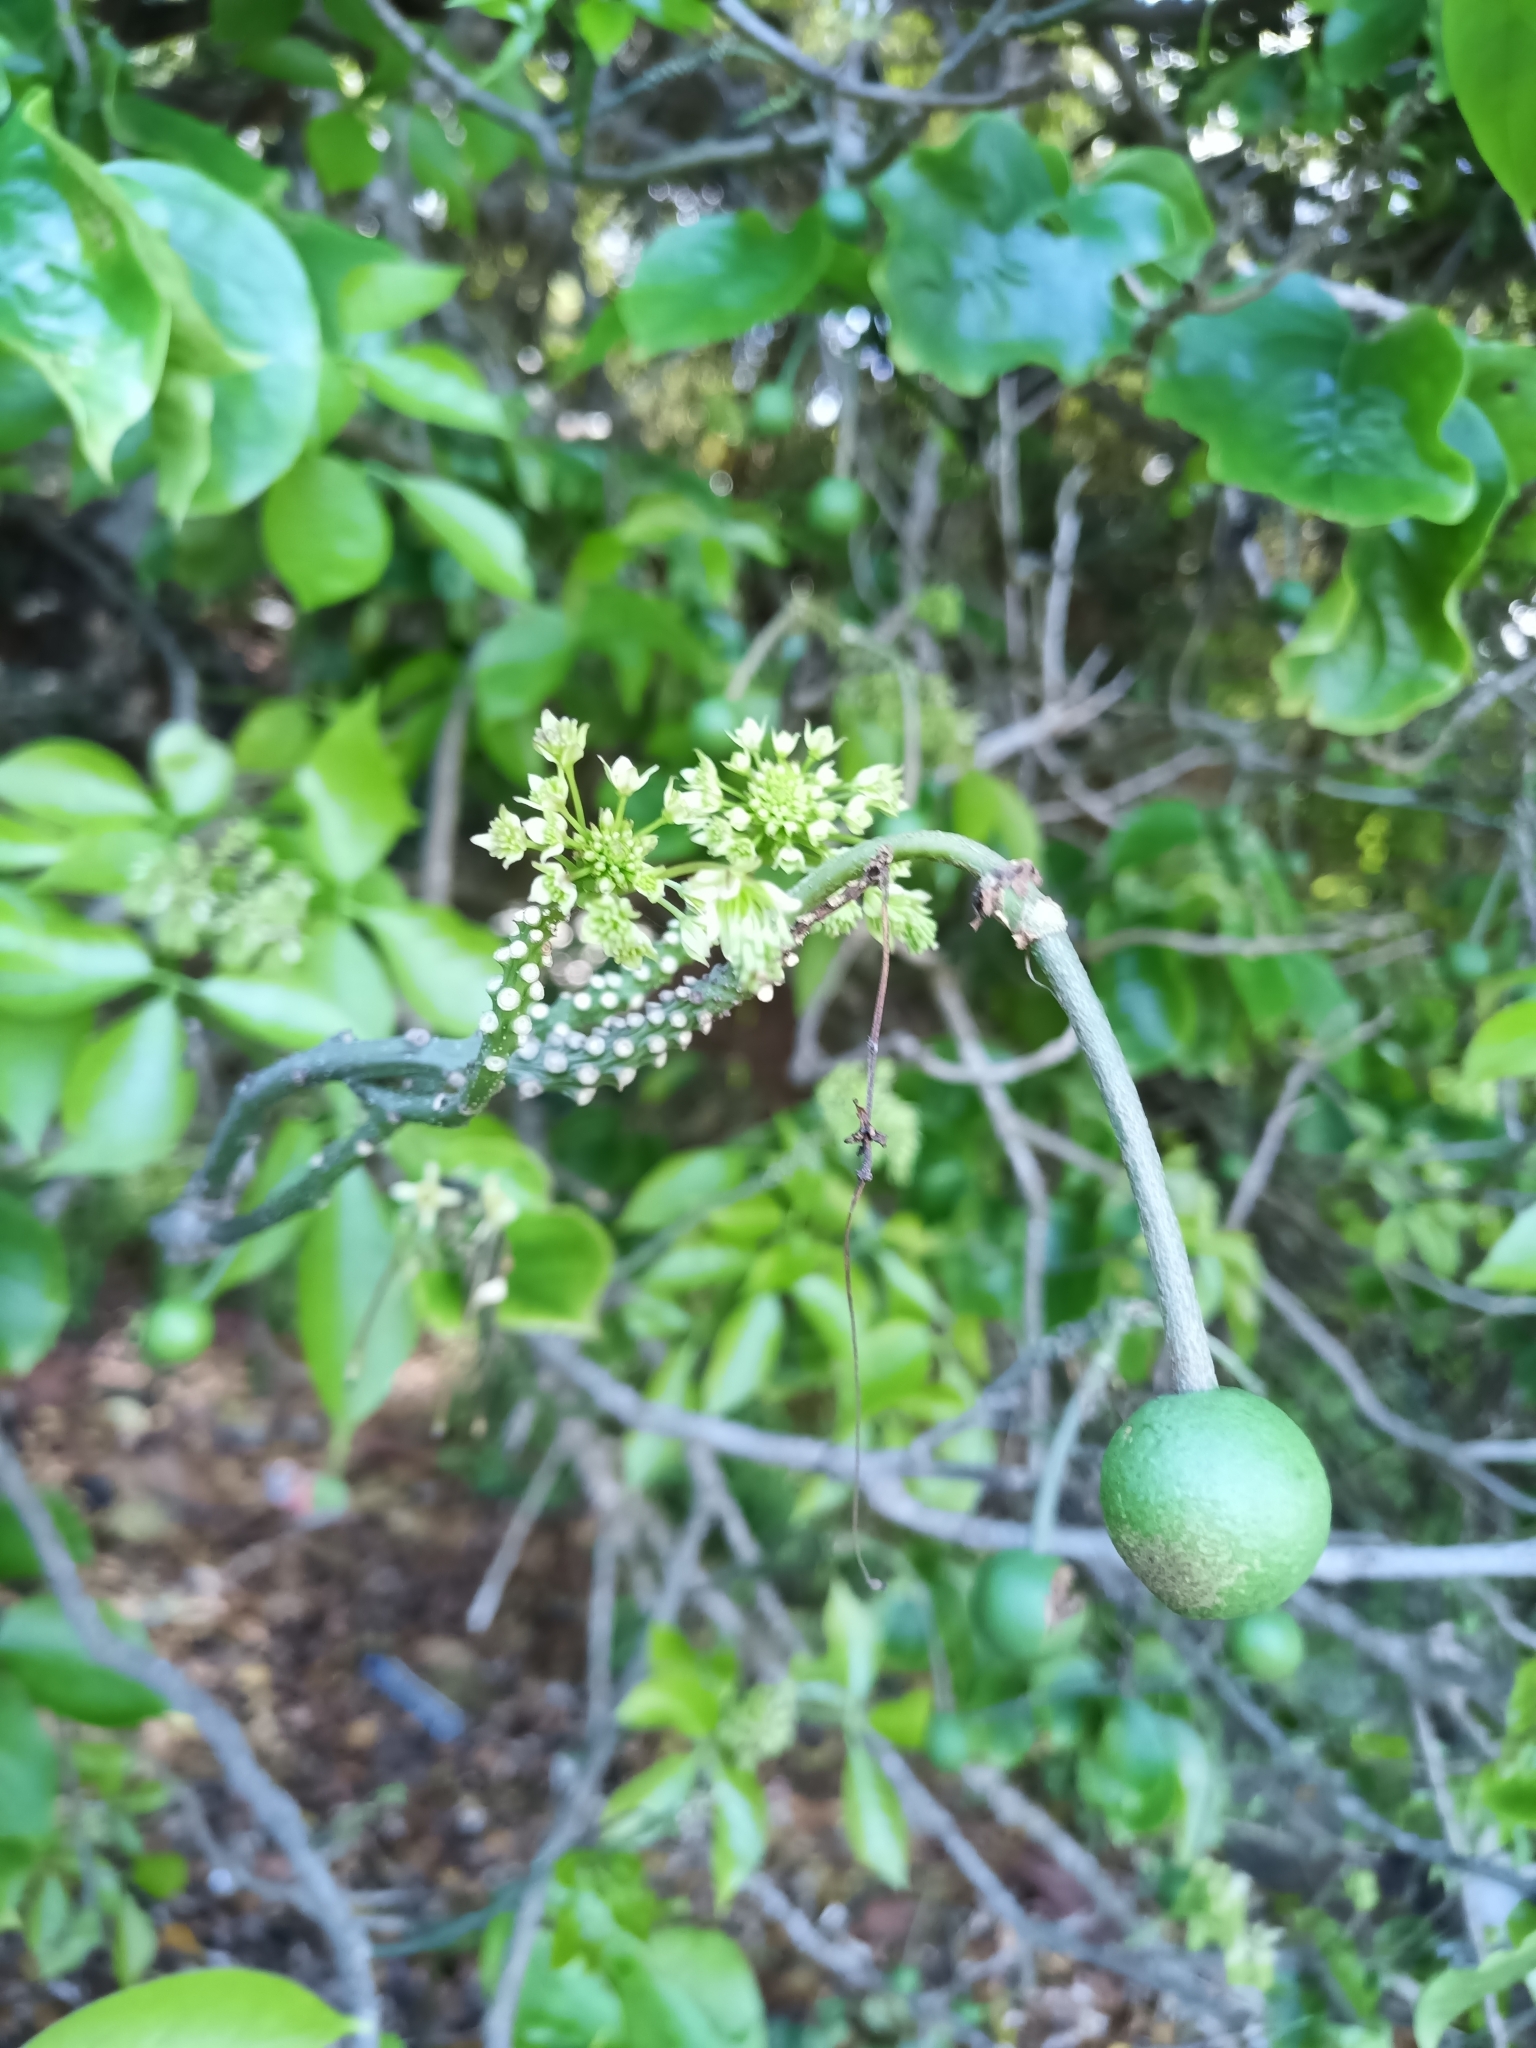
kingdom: Plantae
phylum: Tracheophyta
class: Magnoliopsida
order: Brassicales
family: Capparaceae
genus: Crateva
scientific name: Crateva tapia
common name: Garlic-pear
